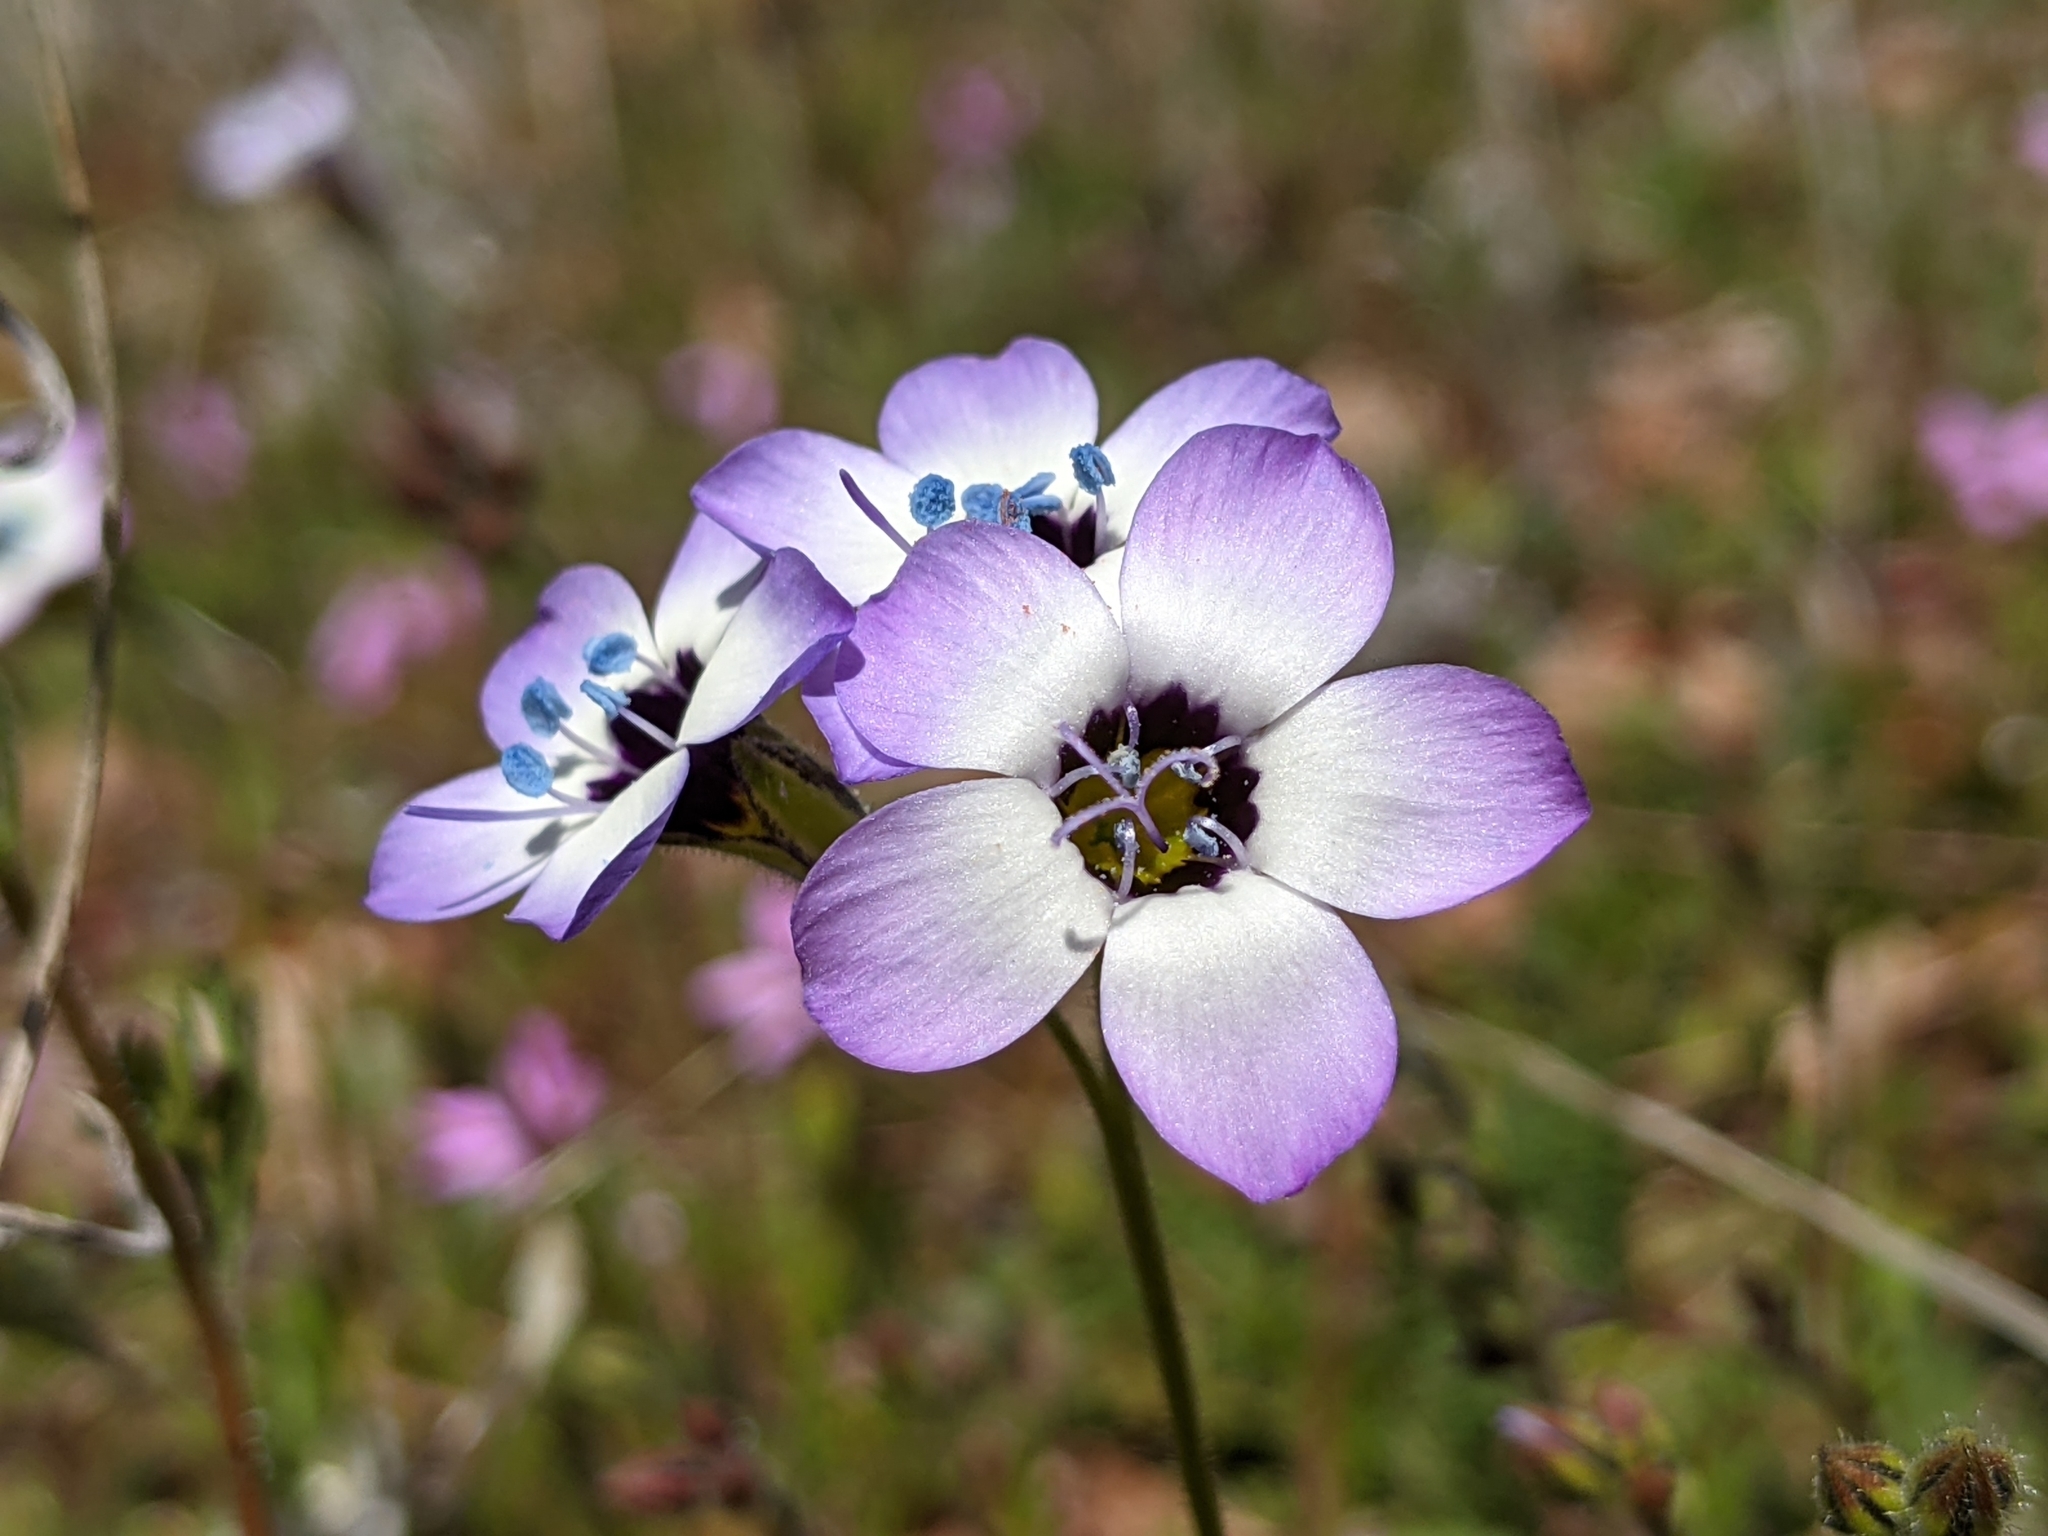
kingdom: Plantae
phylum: Tracheophyta
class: Magnoliopsida
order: Ericales
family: Polemoniaceae
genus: Gilia
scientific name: Gilia tricolor
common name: Bird's-eyes
